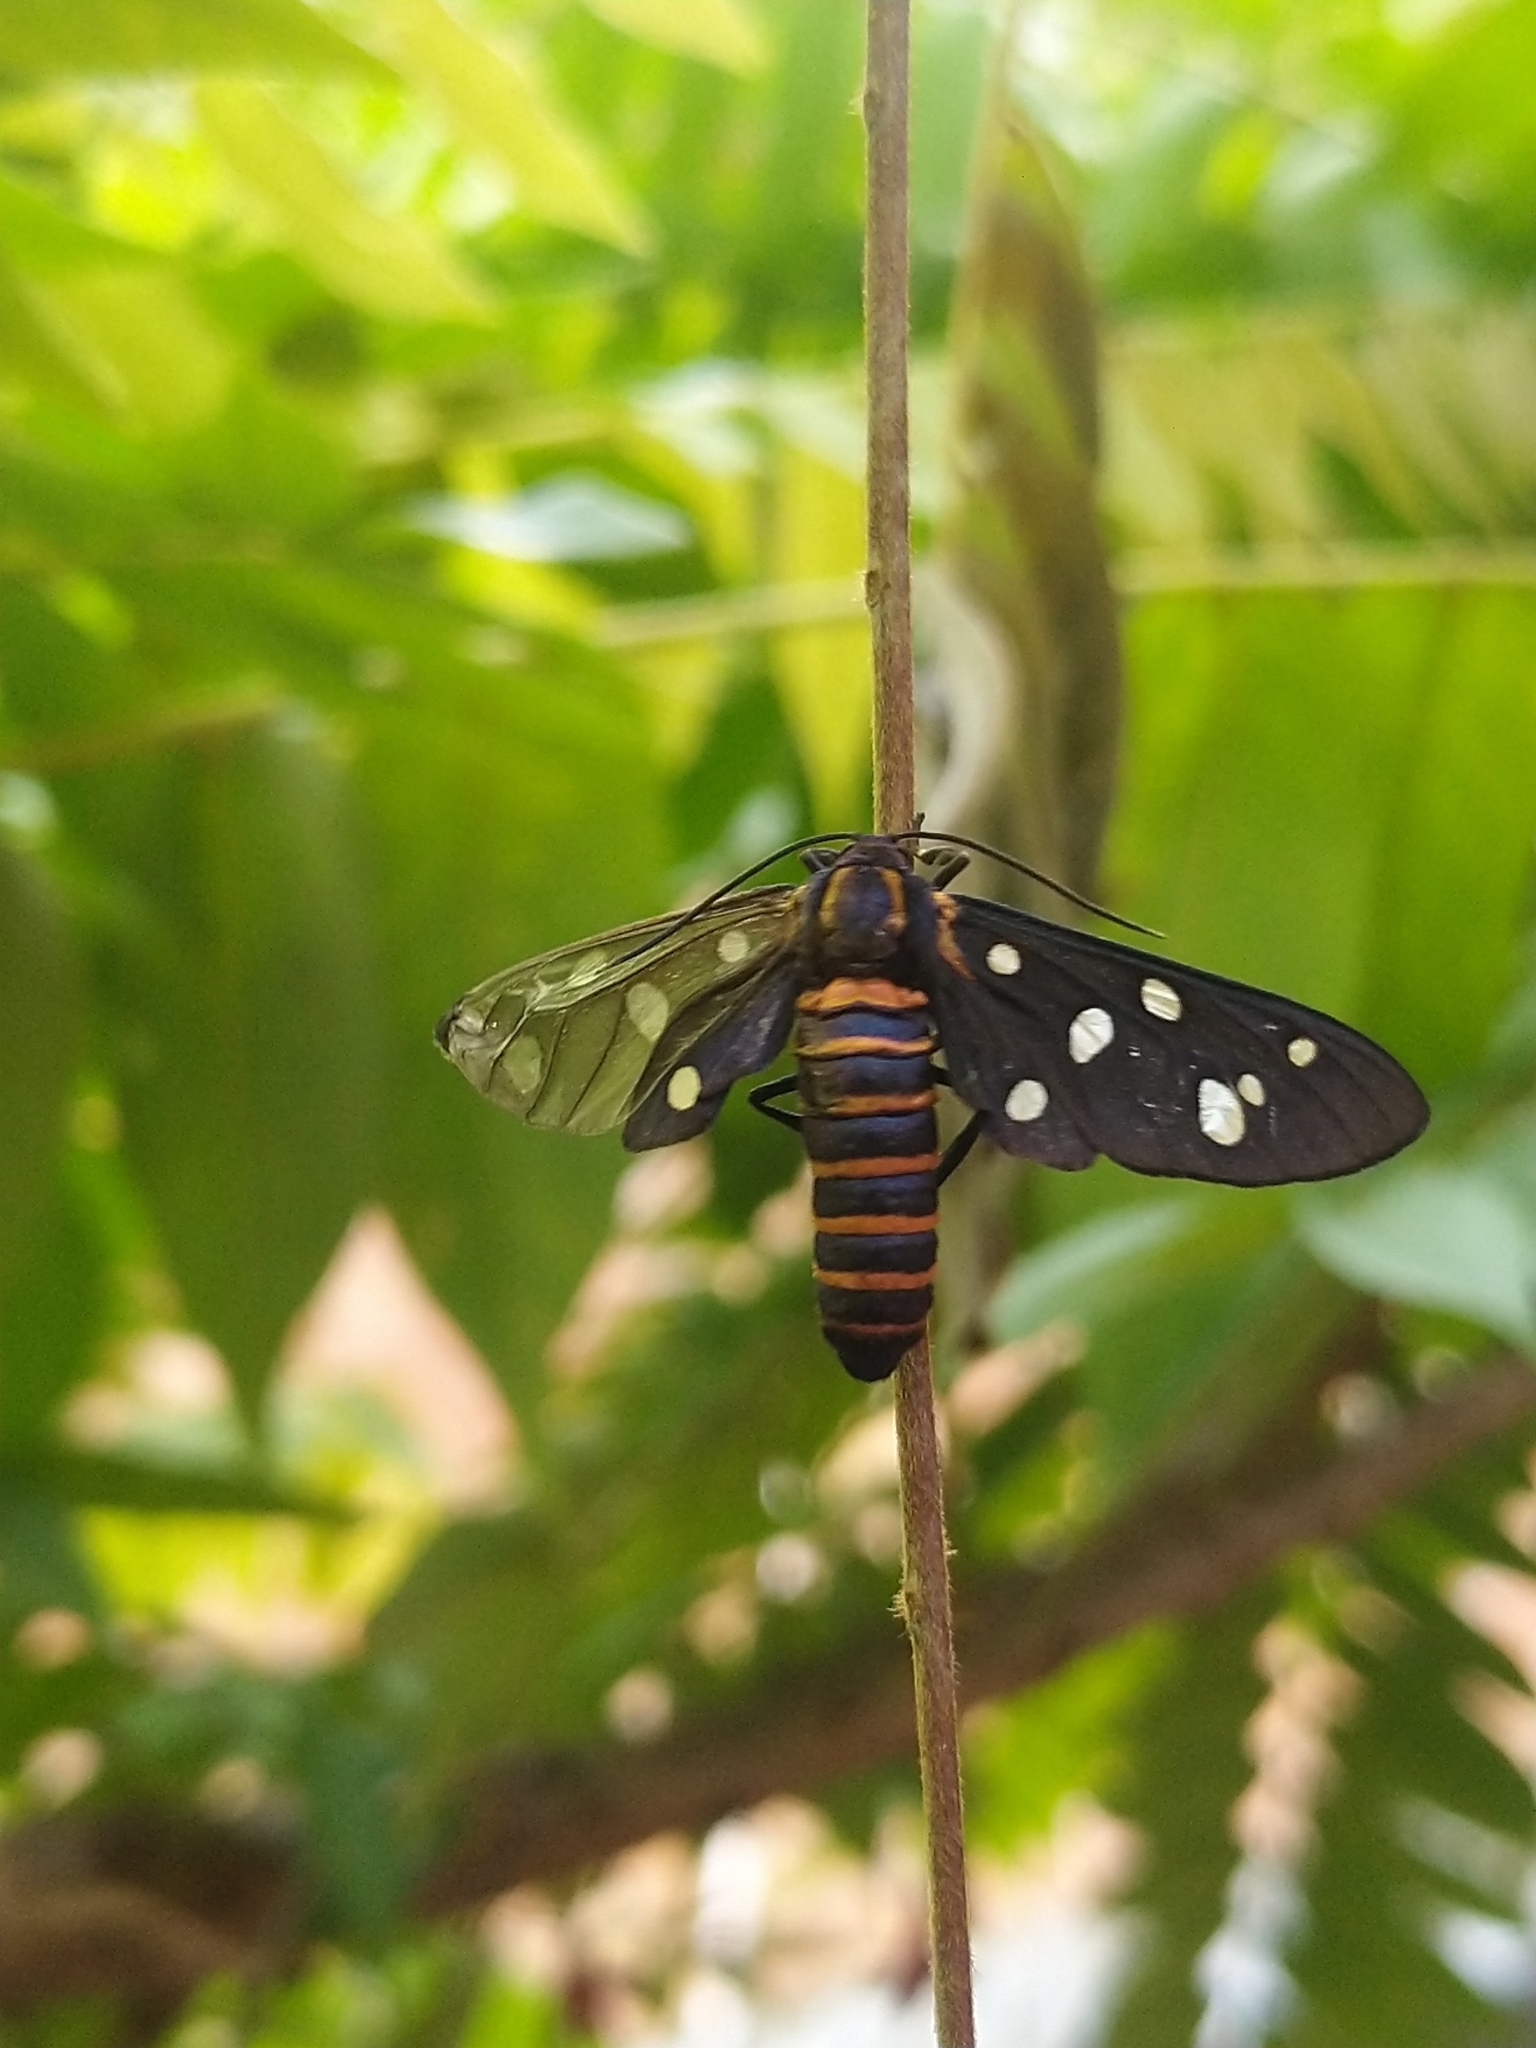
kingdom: Animalia
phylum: Arthropoda
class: Insecta
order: Lepidoptera
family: Erebidae
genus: Amata
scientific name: Amata passalis
